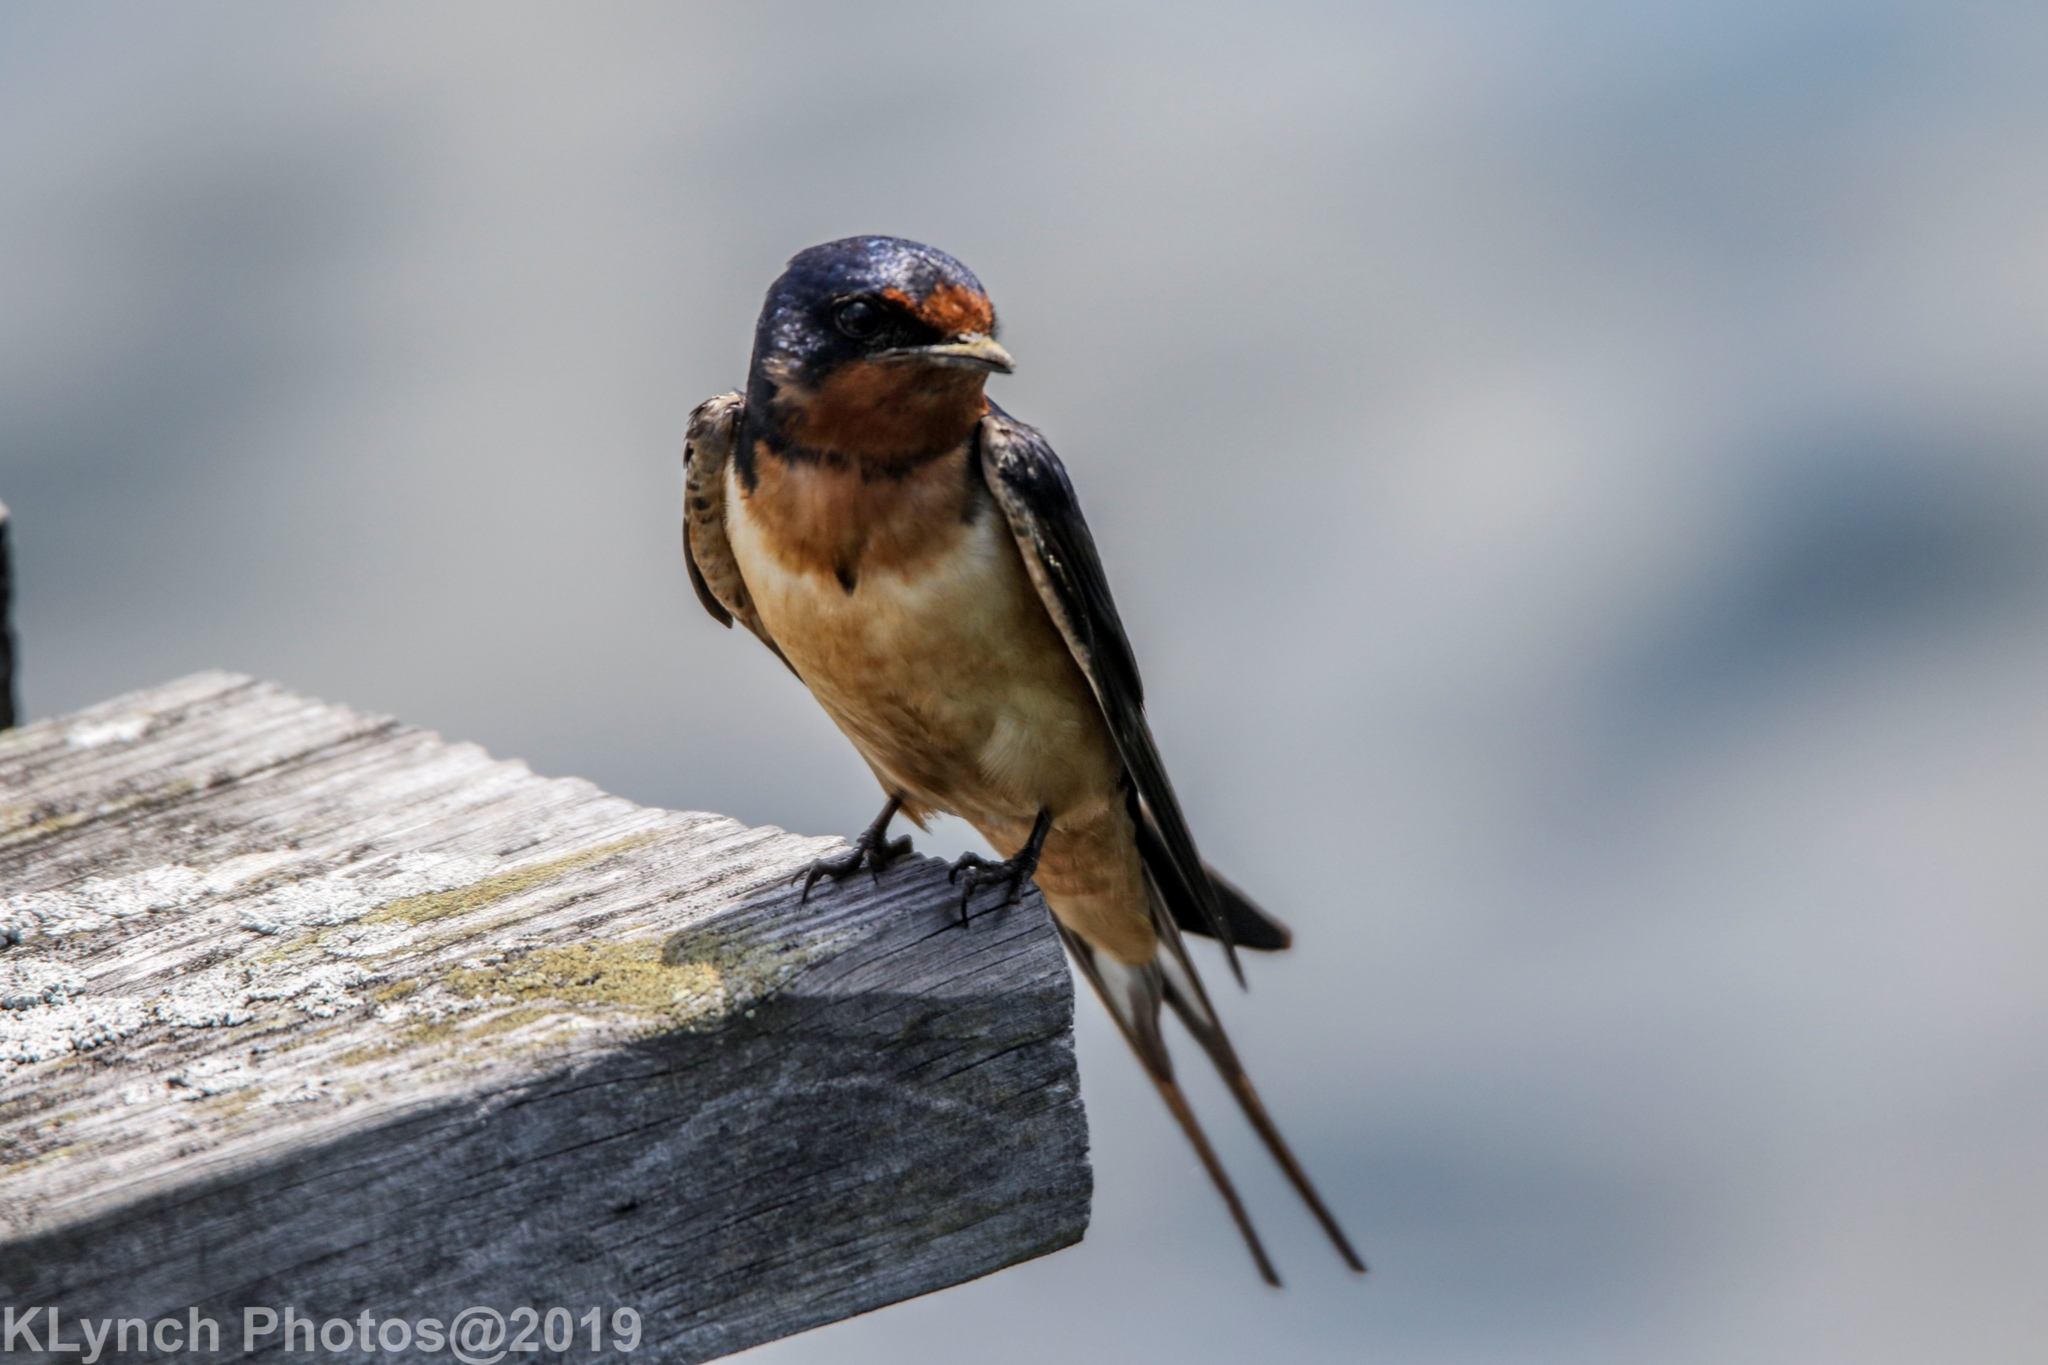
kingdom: Animalia
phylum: Chordata
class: Aves
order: Passeriformes
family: Hirundinidae
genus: Hirundo
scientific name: Hirundo rustica
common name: Barn swallow
